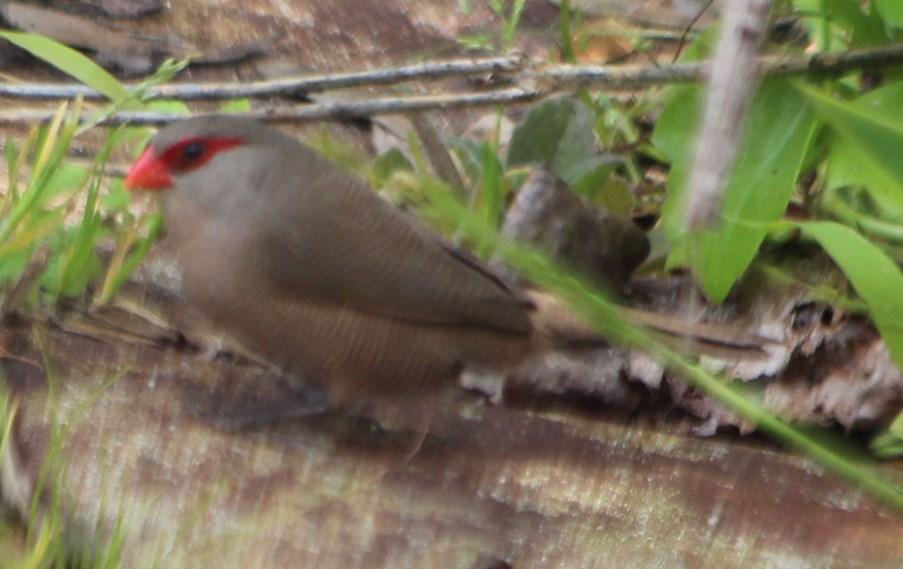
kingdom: Animalia
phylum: Chordata
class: Aves
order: Passeriformes
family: Estrildidae
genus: Estrilda
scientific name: Estrilda astrild
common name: Common waxbill
